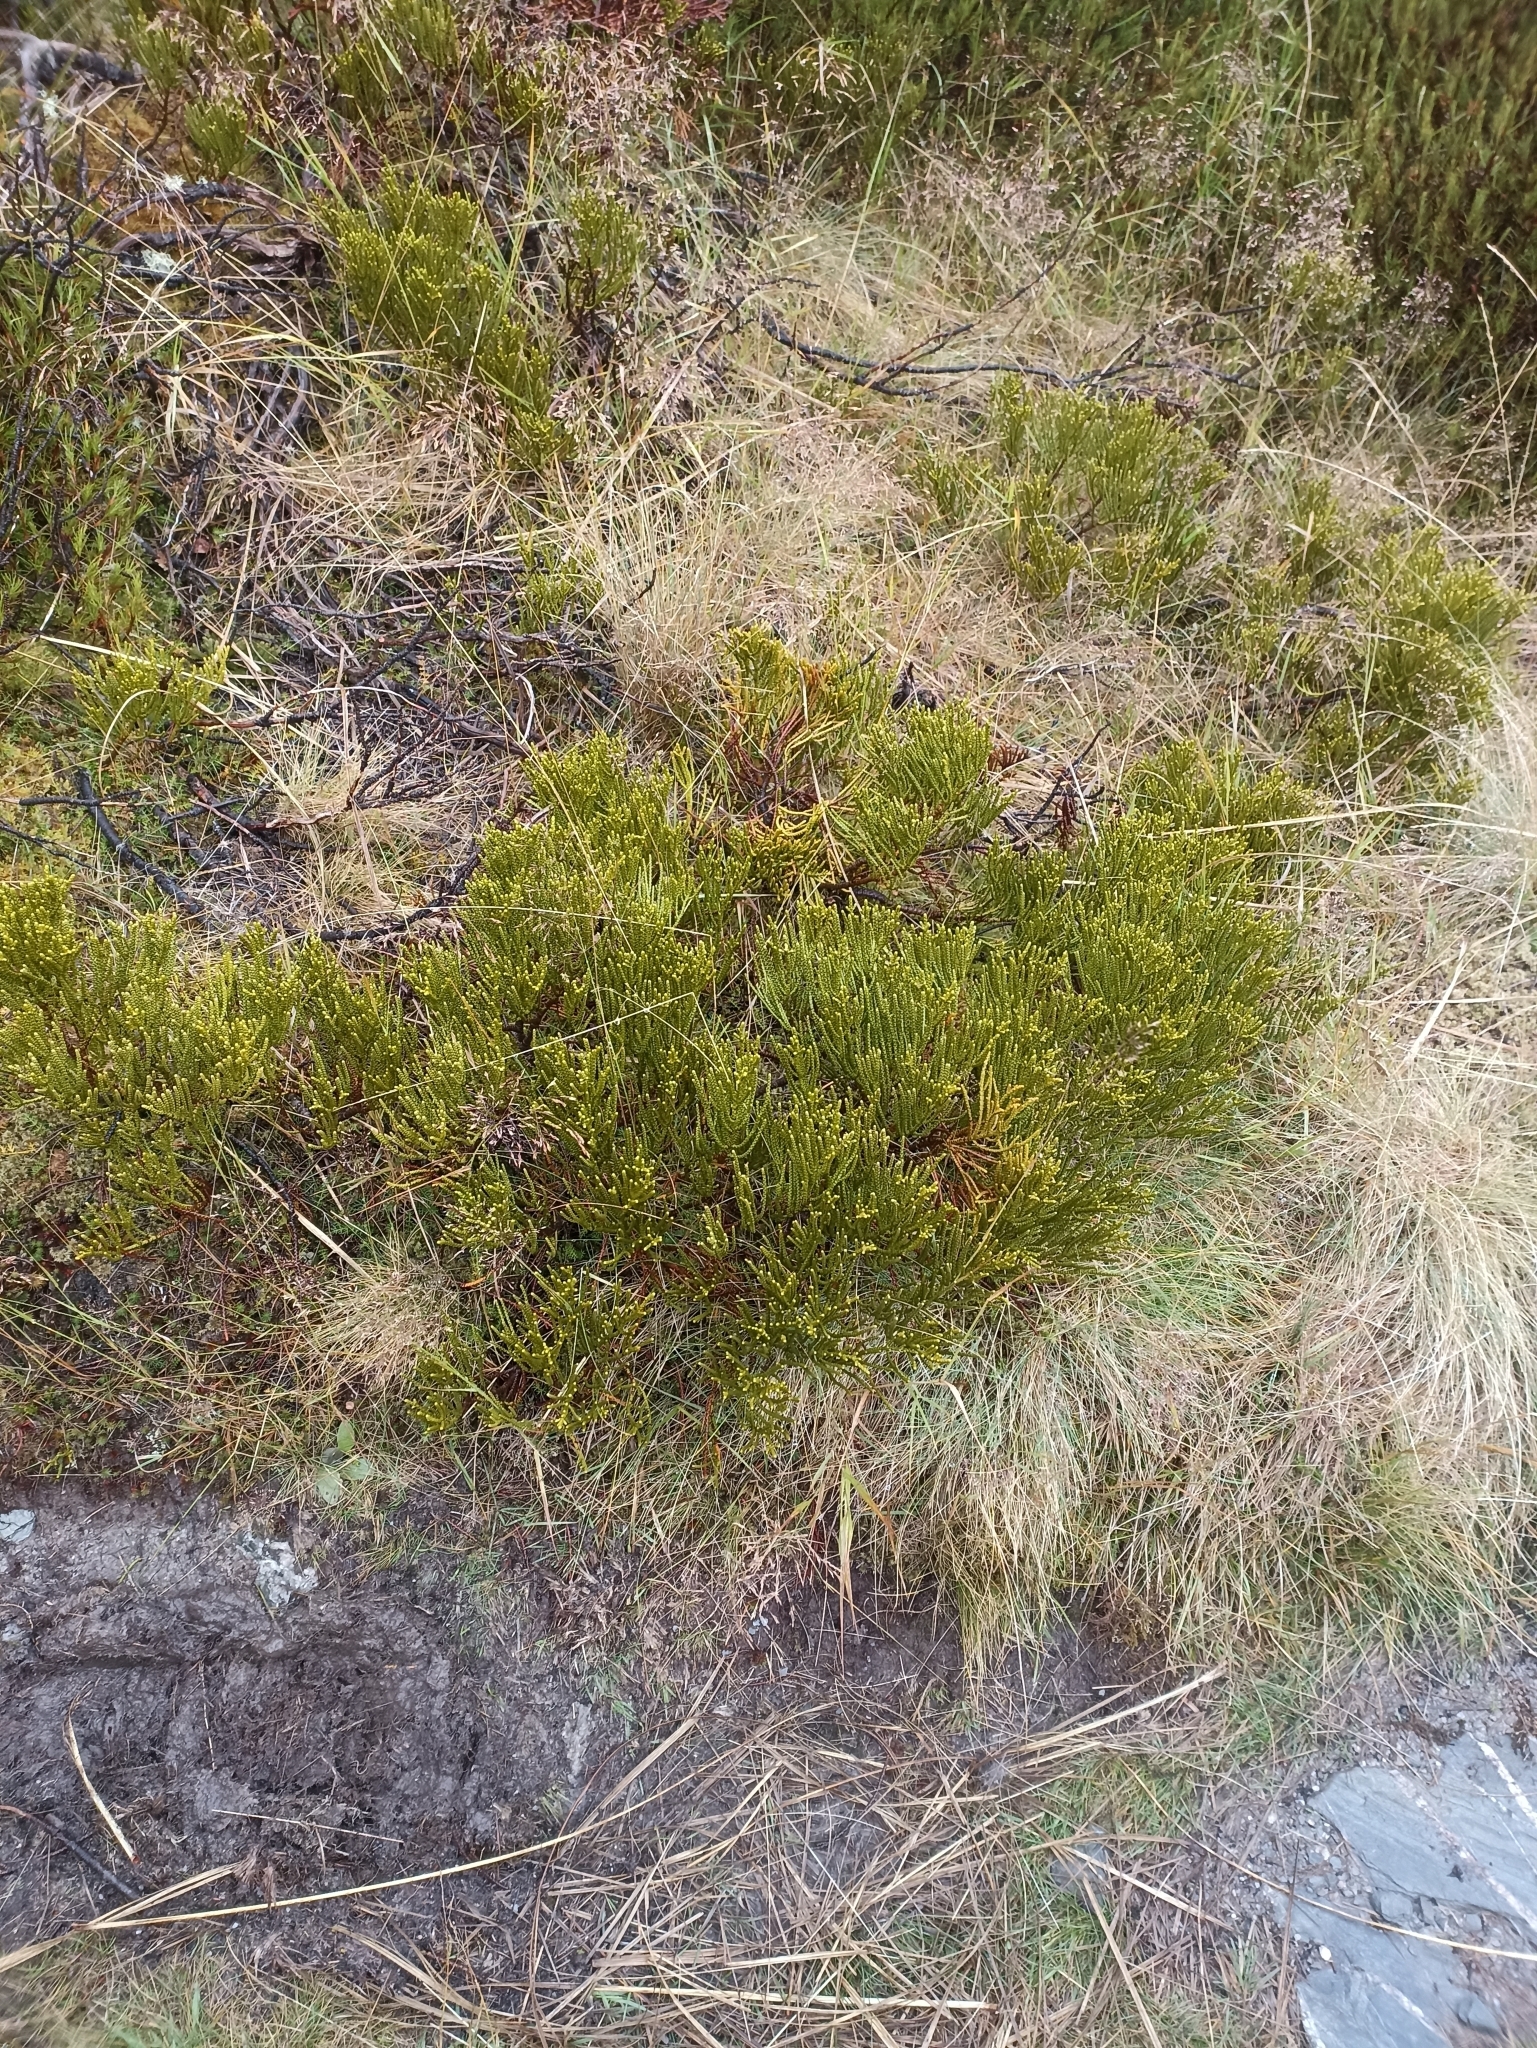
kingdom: Plantae
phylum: Tracheophyta
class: Magnoliopsida
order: Lamiales
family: Plantaginaceae
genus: Veronica
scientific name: Veronica hectorii
